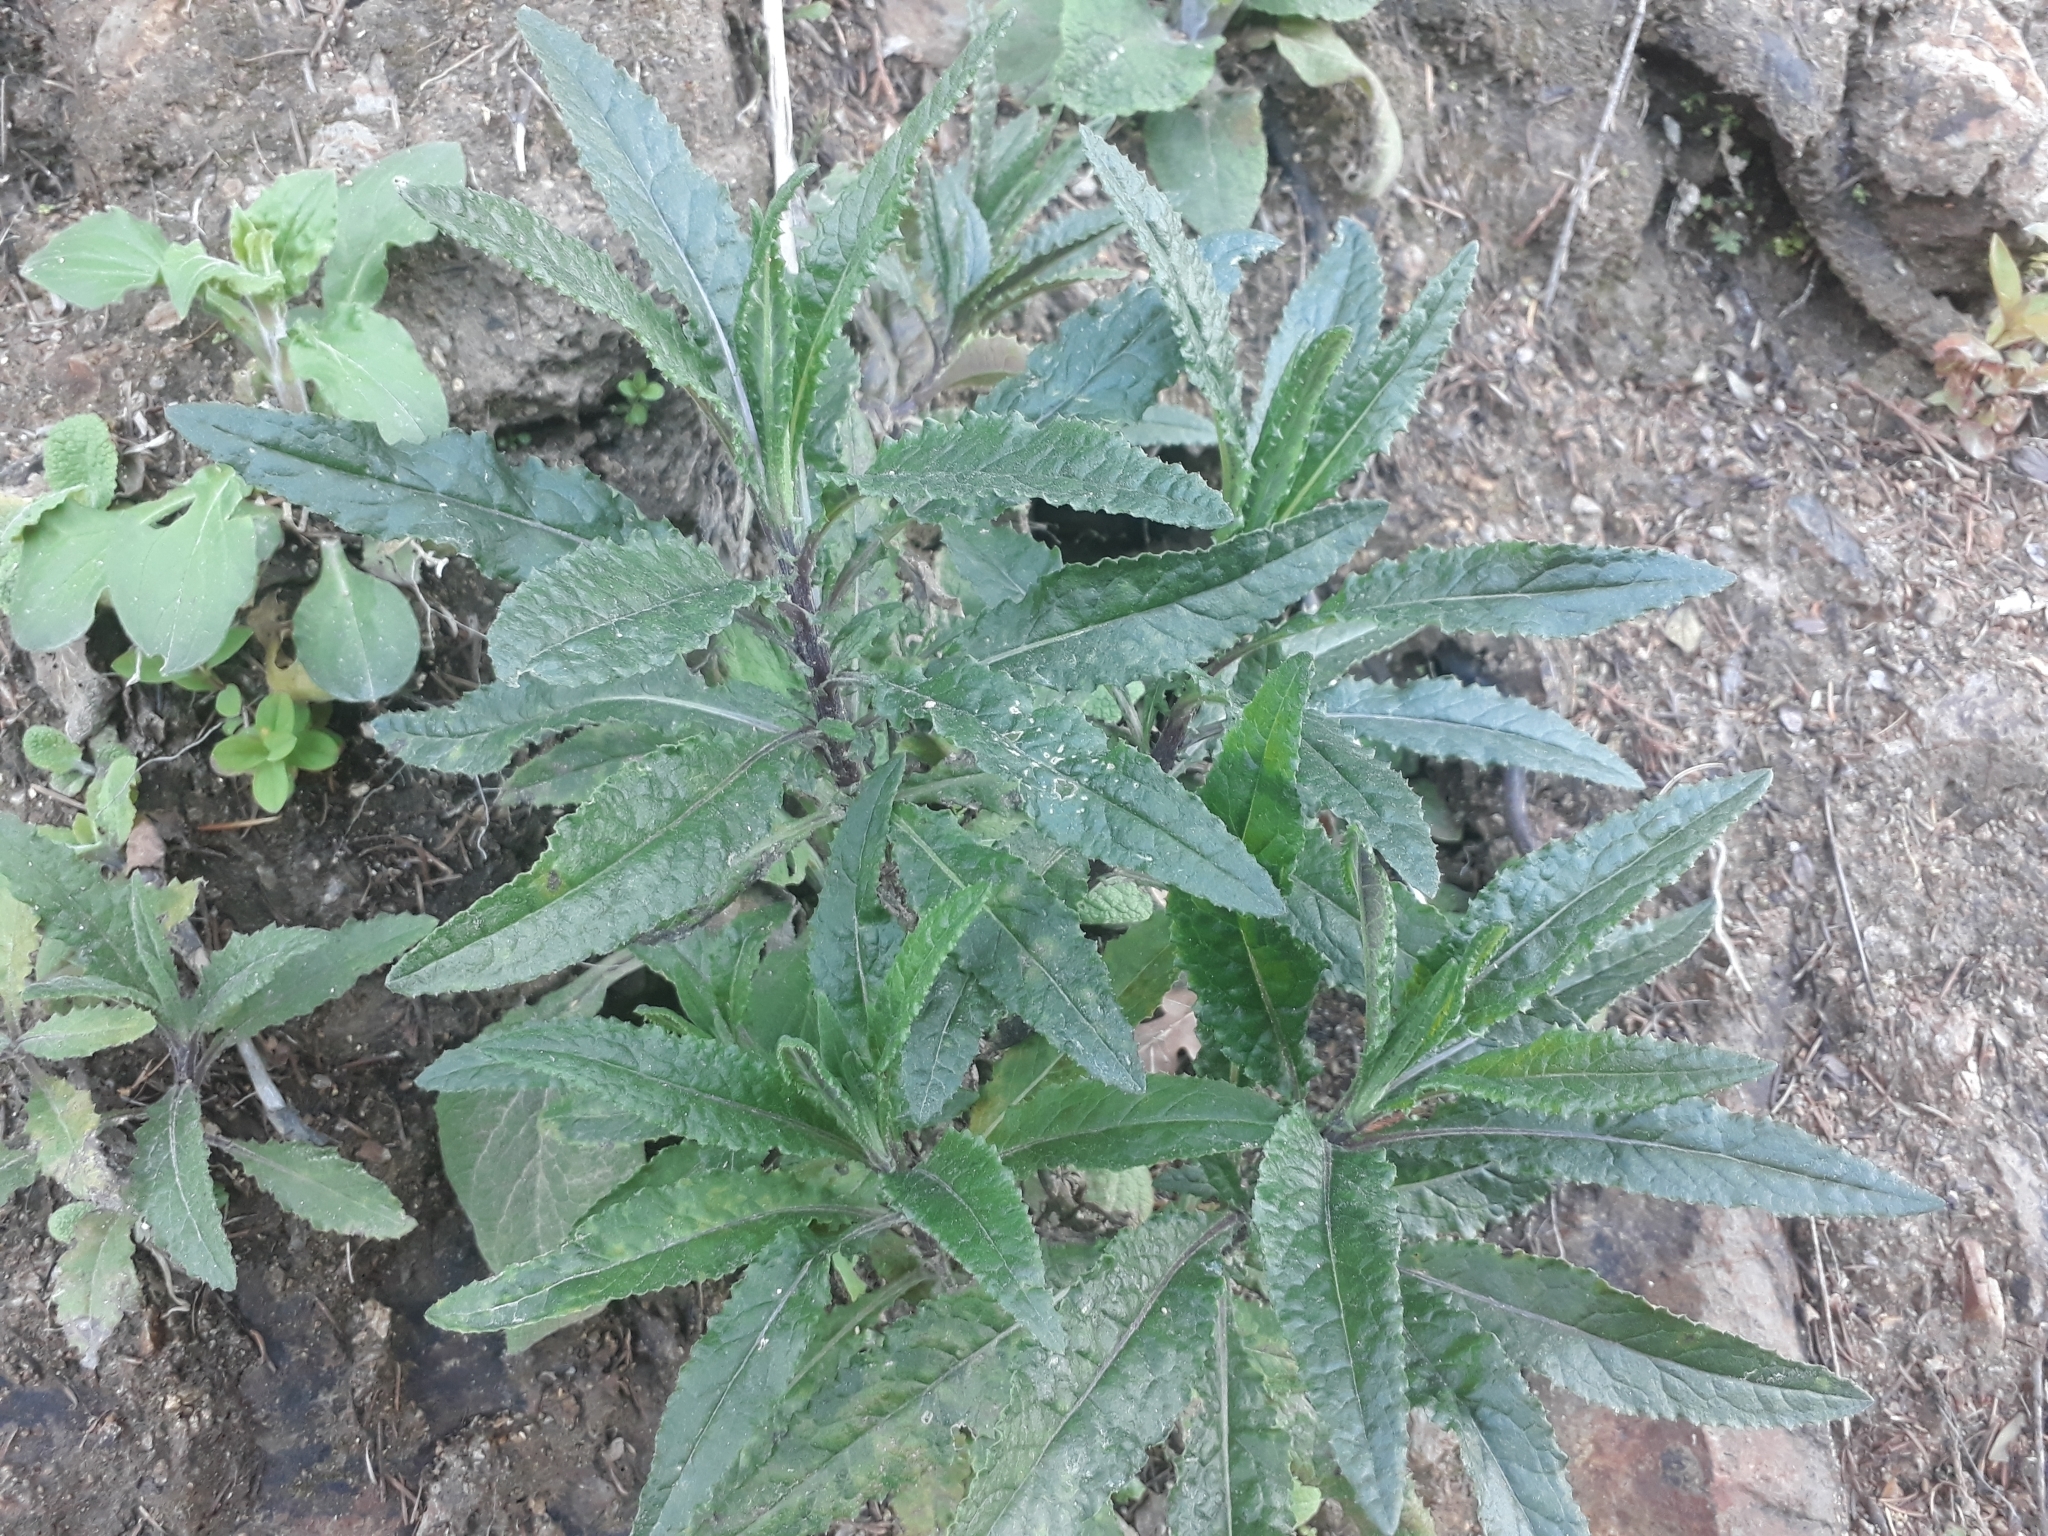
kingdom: Plantae
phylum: Tracheophyta
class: Magnoliopsida
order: Asterales
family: Asteraceae
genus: Senecio
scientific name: Senecio minimus
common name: Toothed fireweed
